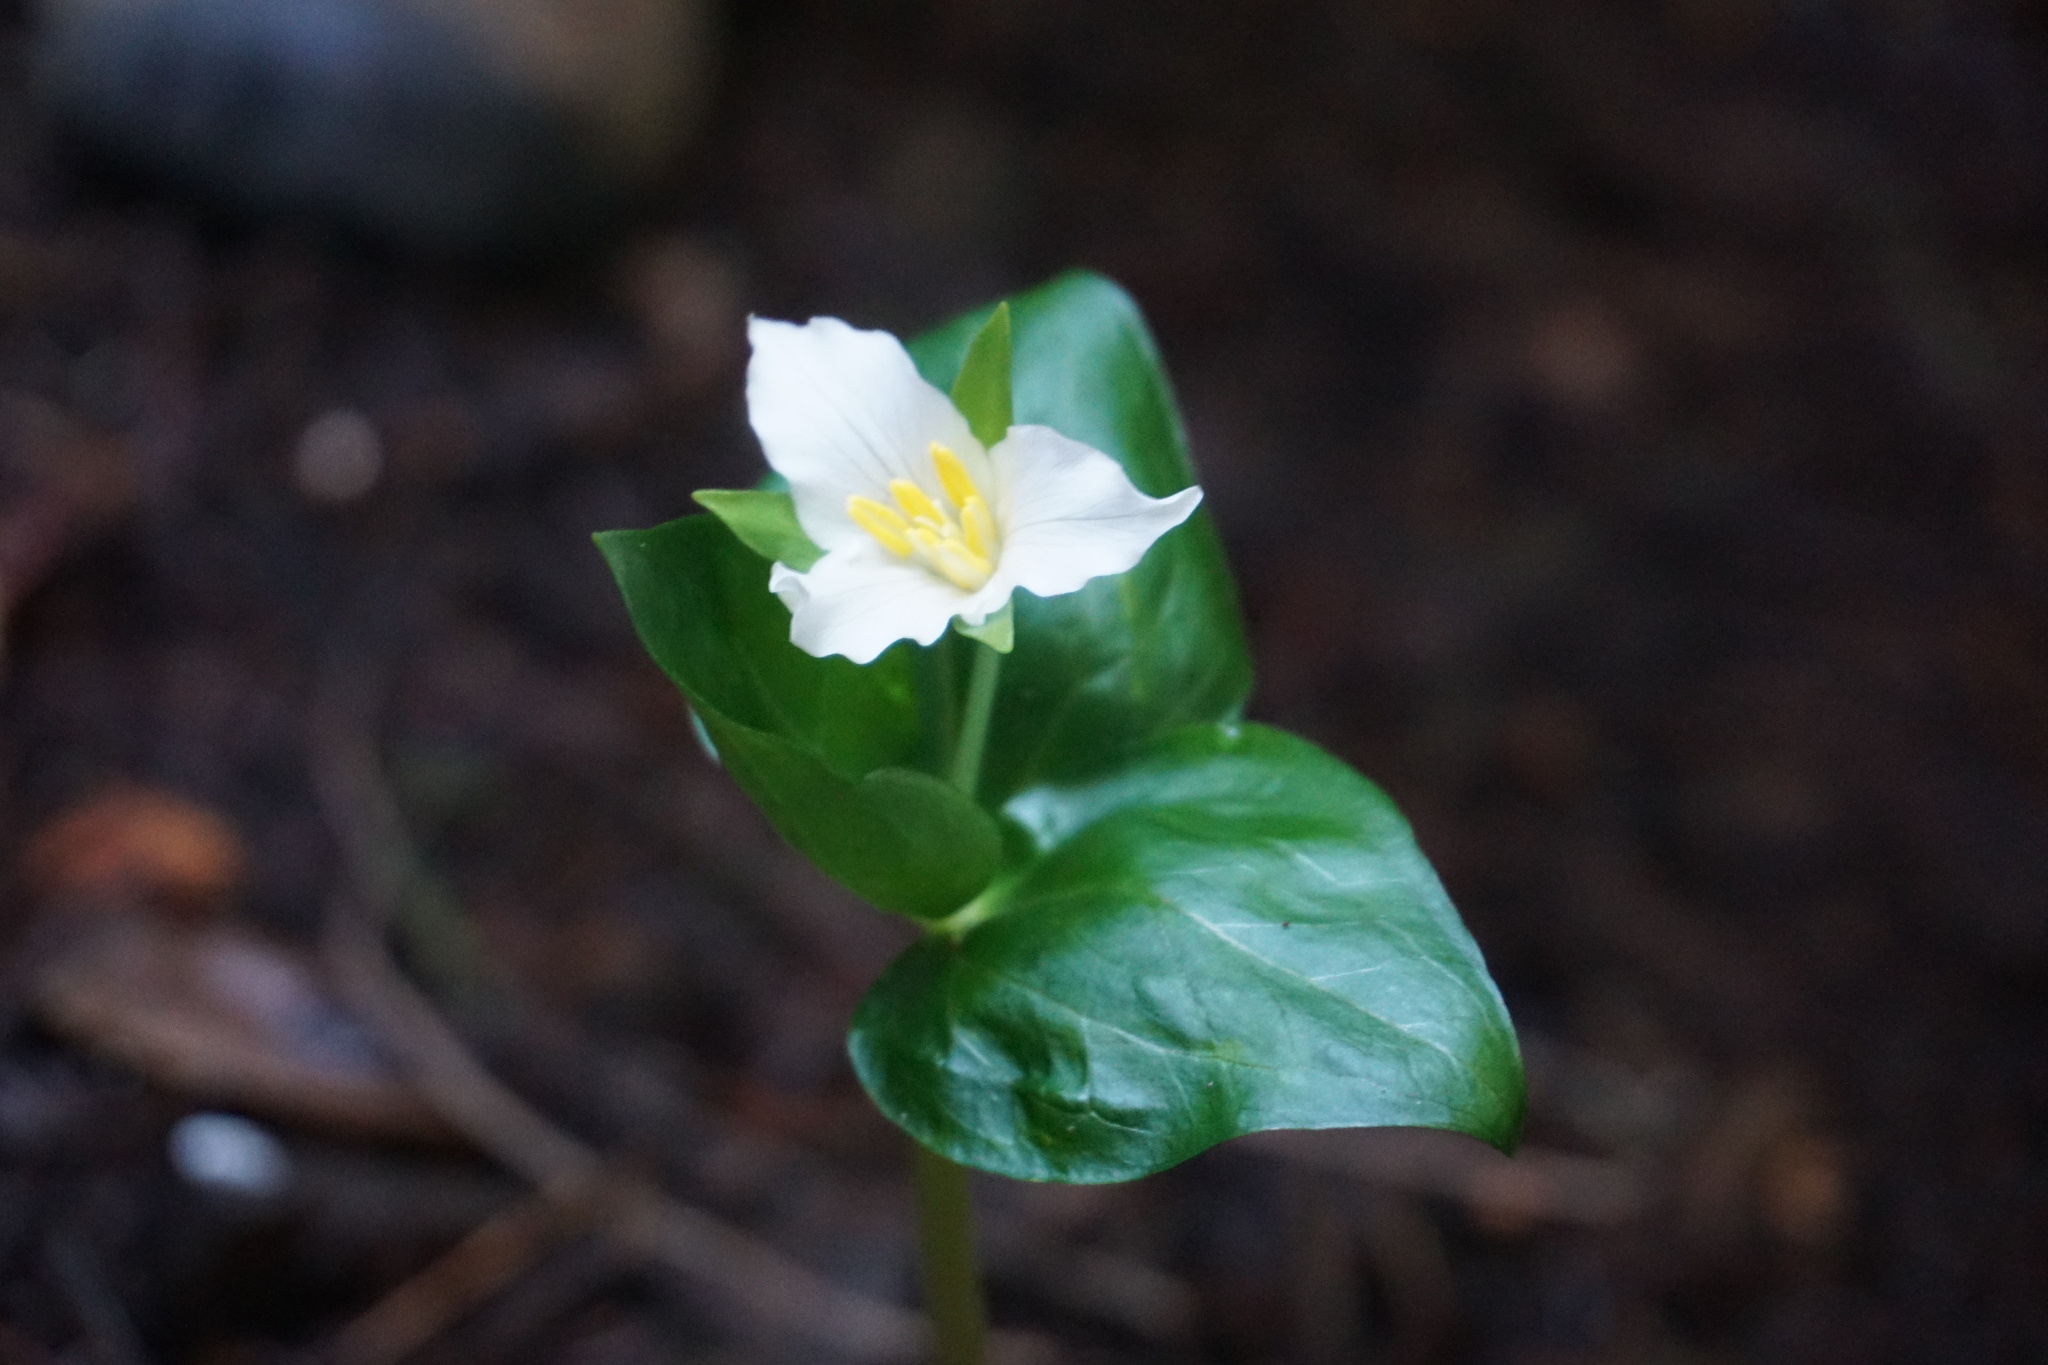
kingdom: Plantae
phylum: Tracheophyta
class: Liliopsida
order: Liliales
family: Melanthiaceae
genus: Trillium
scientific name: Trillium ovatum
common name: Pacific trillium
